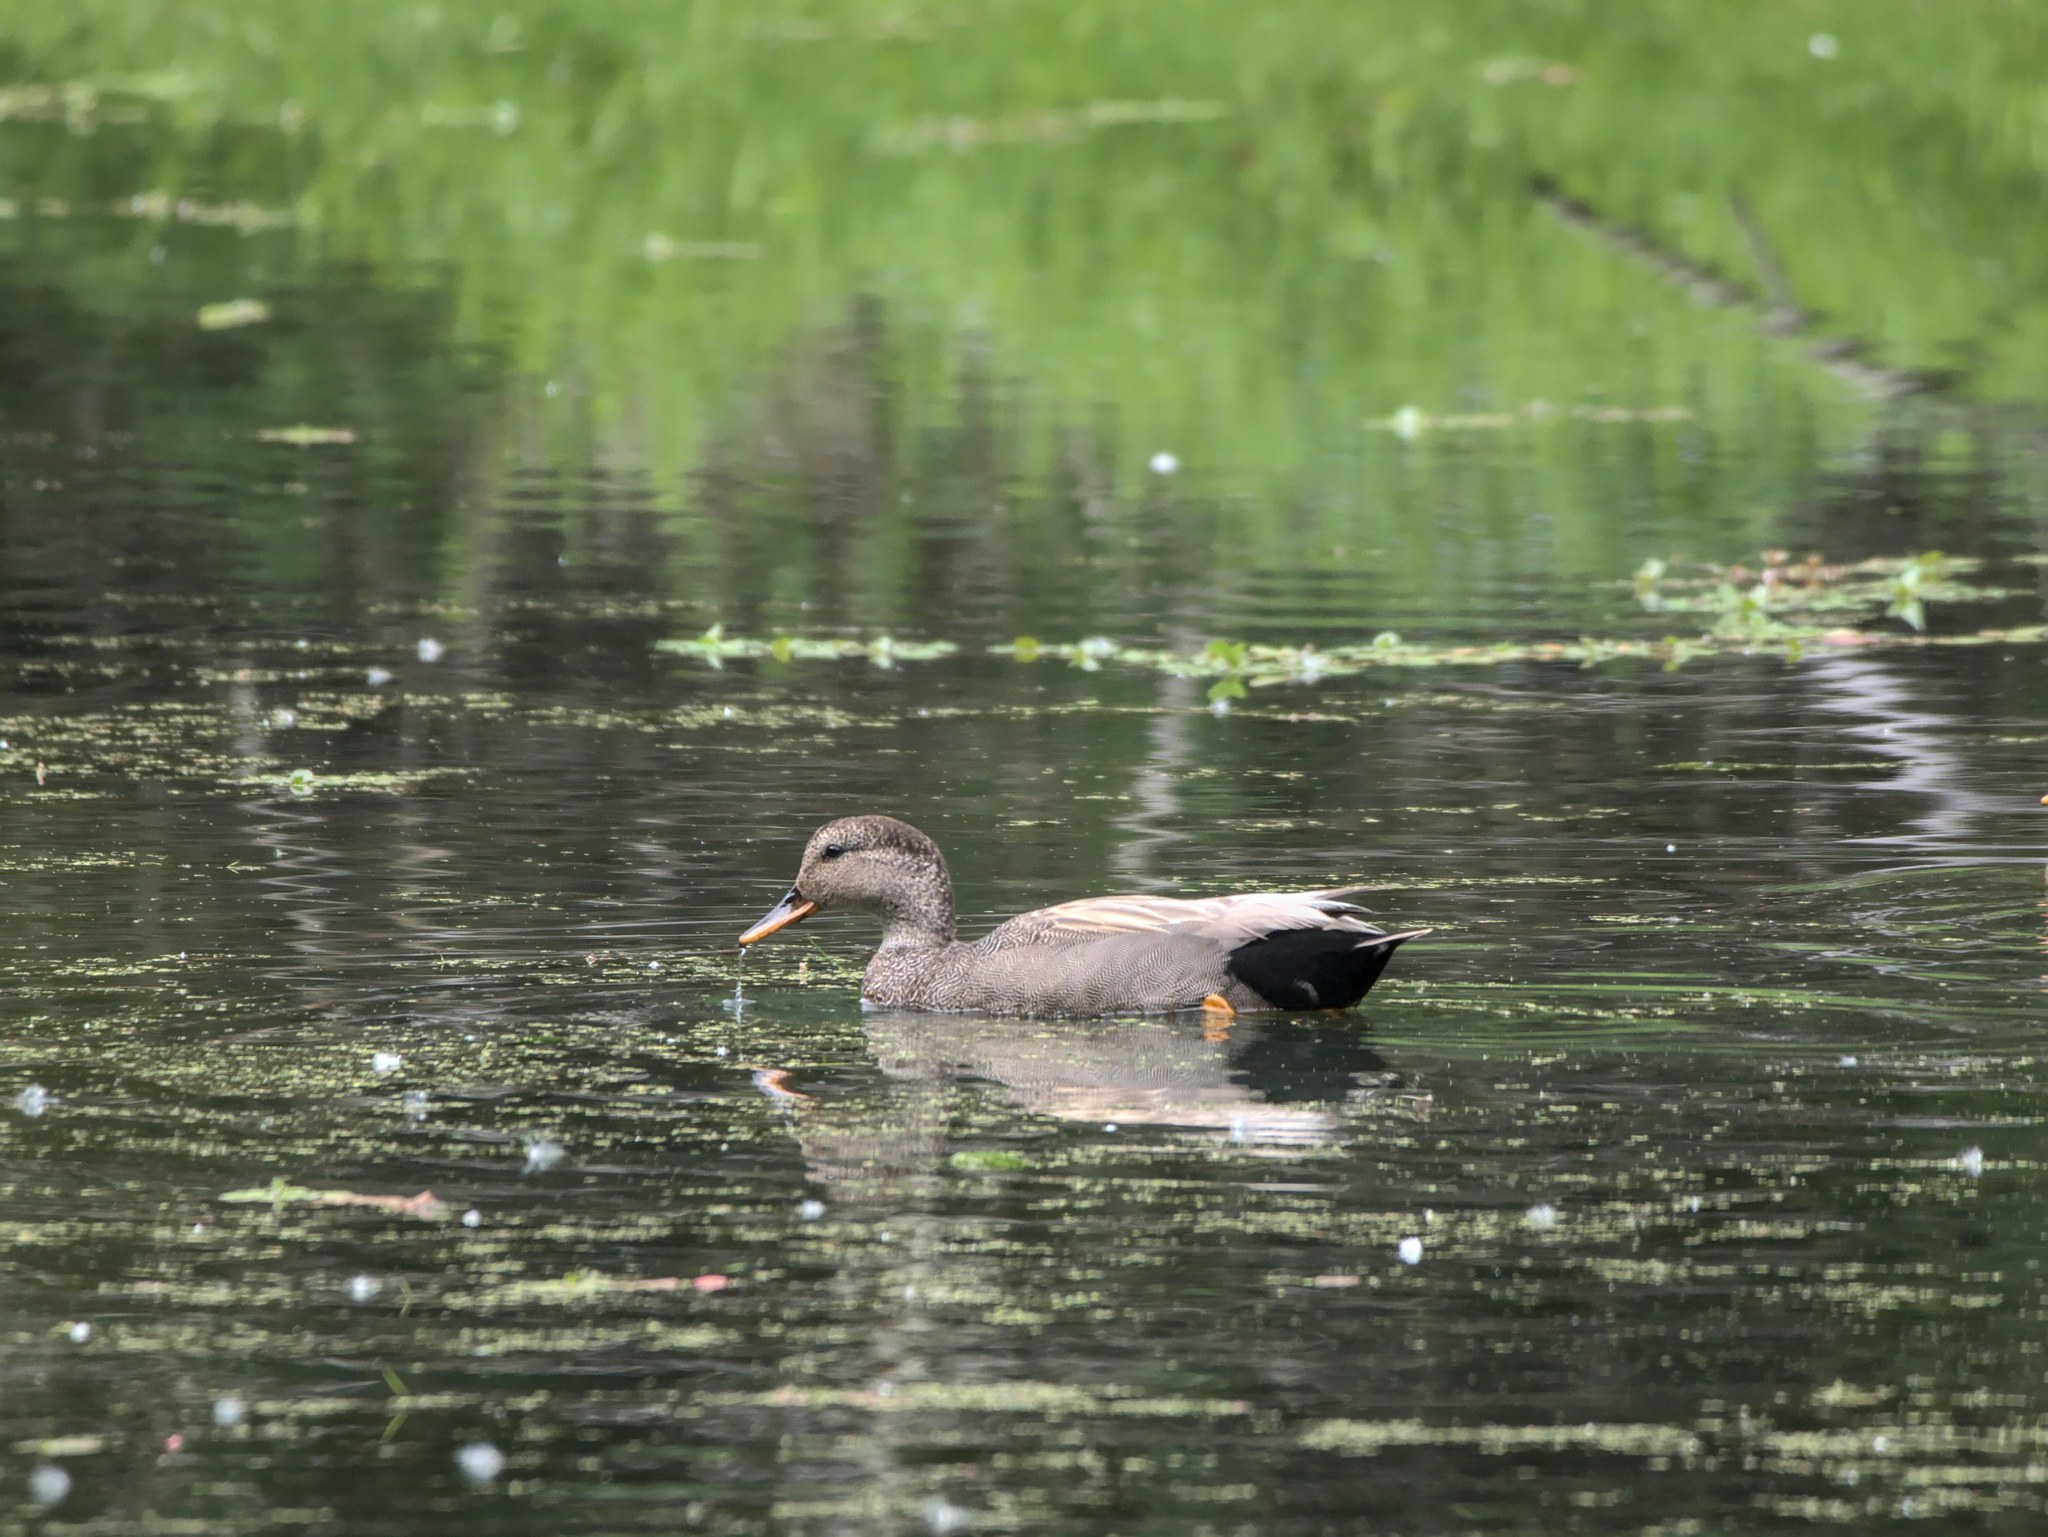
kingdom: Animalia
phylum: Chordata
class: Aves
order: Anseriformes
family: Anatidae
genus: Mareca
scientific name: Mareca strepera
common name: Gadwall
